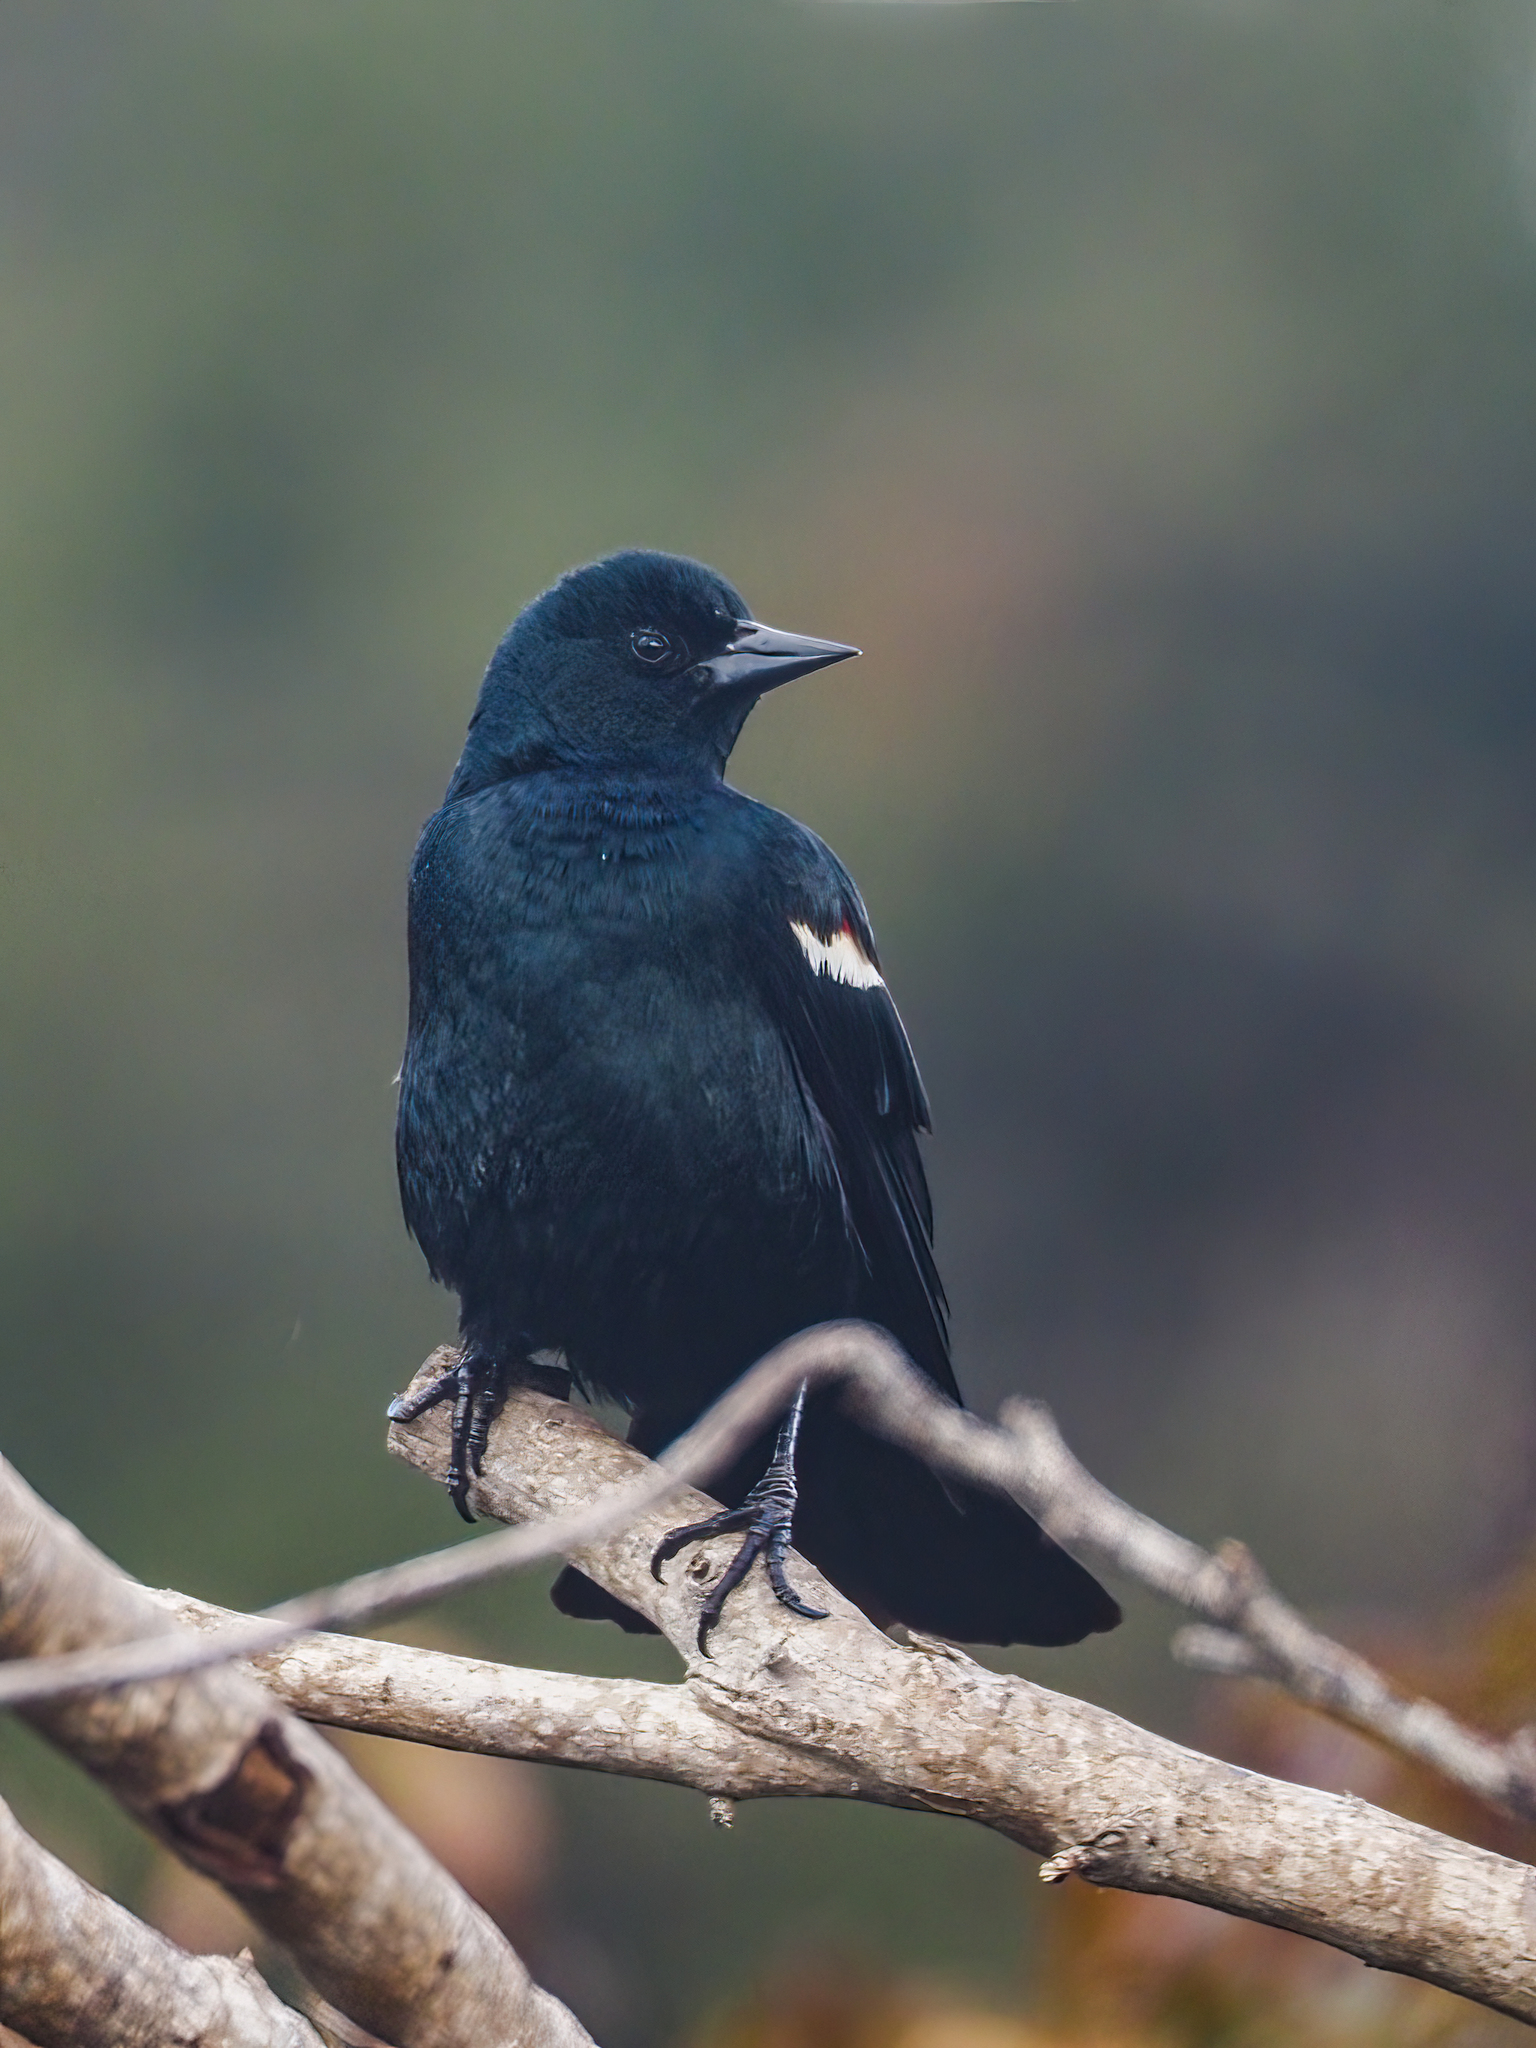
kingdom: Animalia
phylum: Chordata
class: Aves
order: Passeriformes
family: Icteridae
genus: Agelaius
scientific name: Agelaius tricolor
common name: Tricolored blackbird
